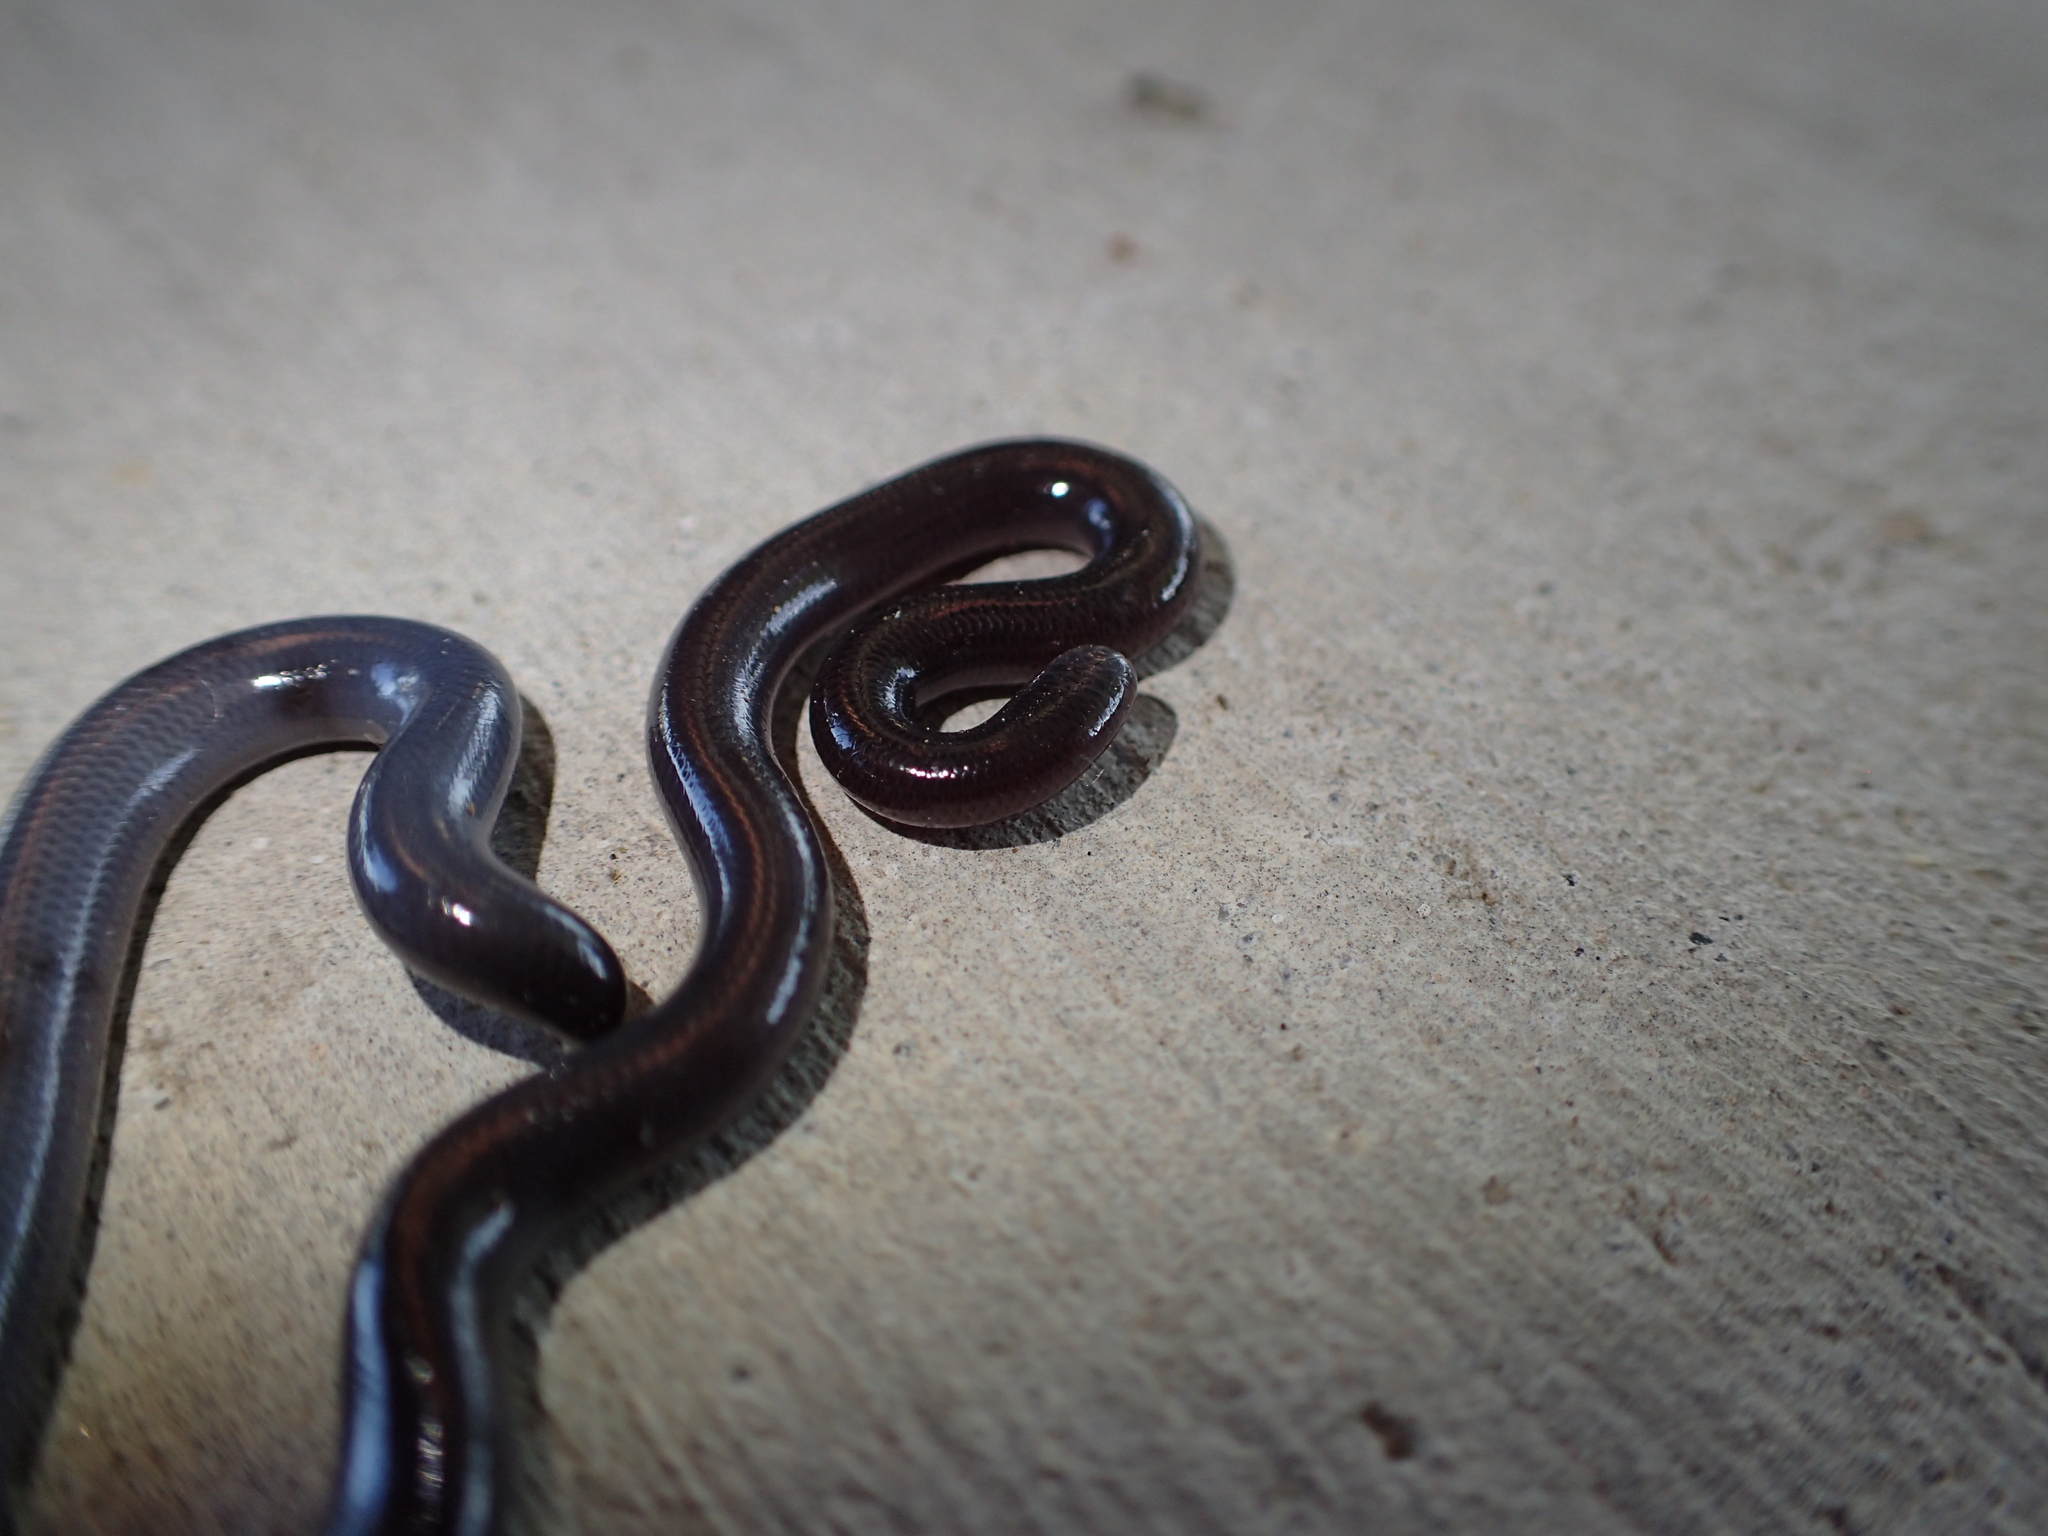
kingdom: Animalia
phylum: Chordata
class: Squamata
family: Typhlopidae
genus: Indotyphlops
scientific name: Indotyphlops braminus
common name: Brahminy blindsnake
